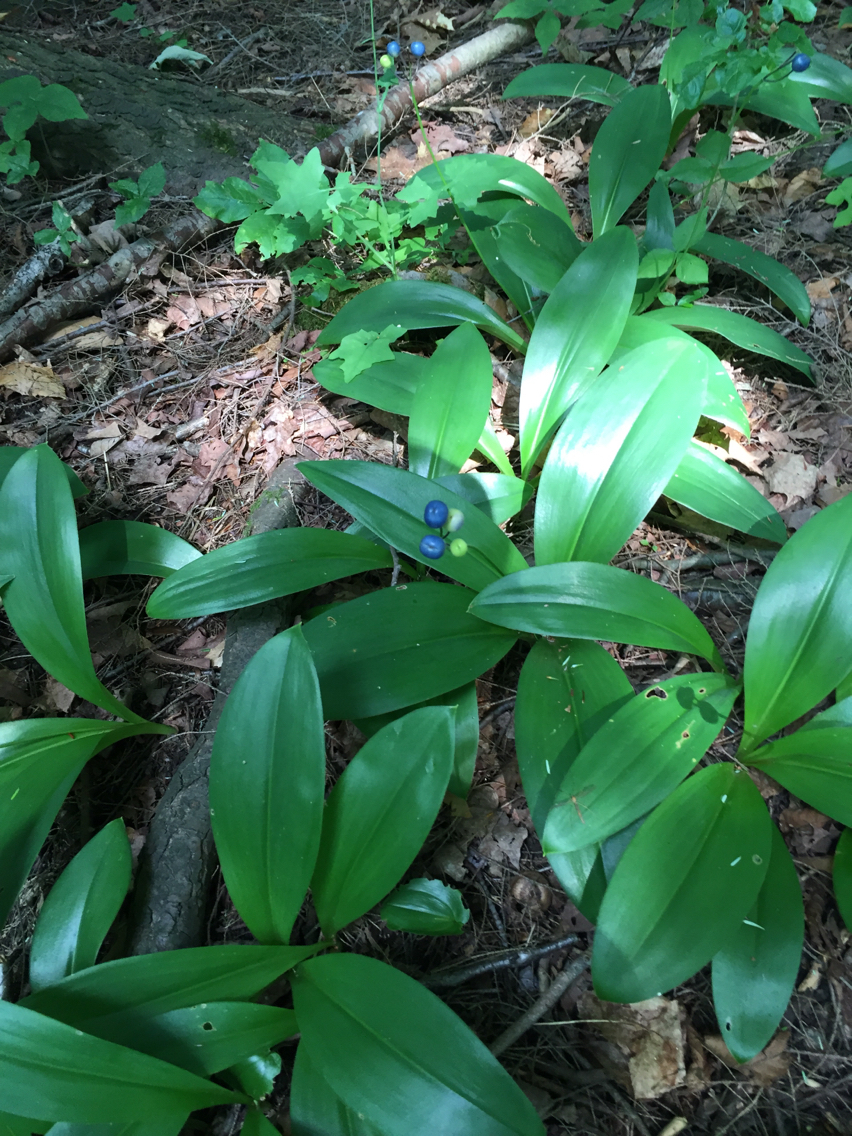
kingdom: Plantae
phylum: Tracheophyta
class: Liliopsida
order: Liliales
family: Liliaceae
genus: Clintonia
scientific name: Clintonia borealis
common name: Yellow clintonia
